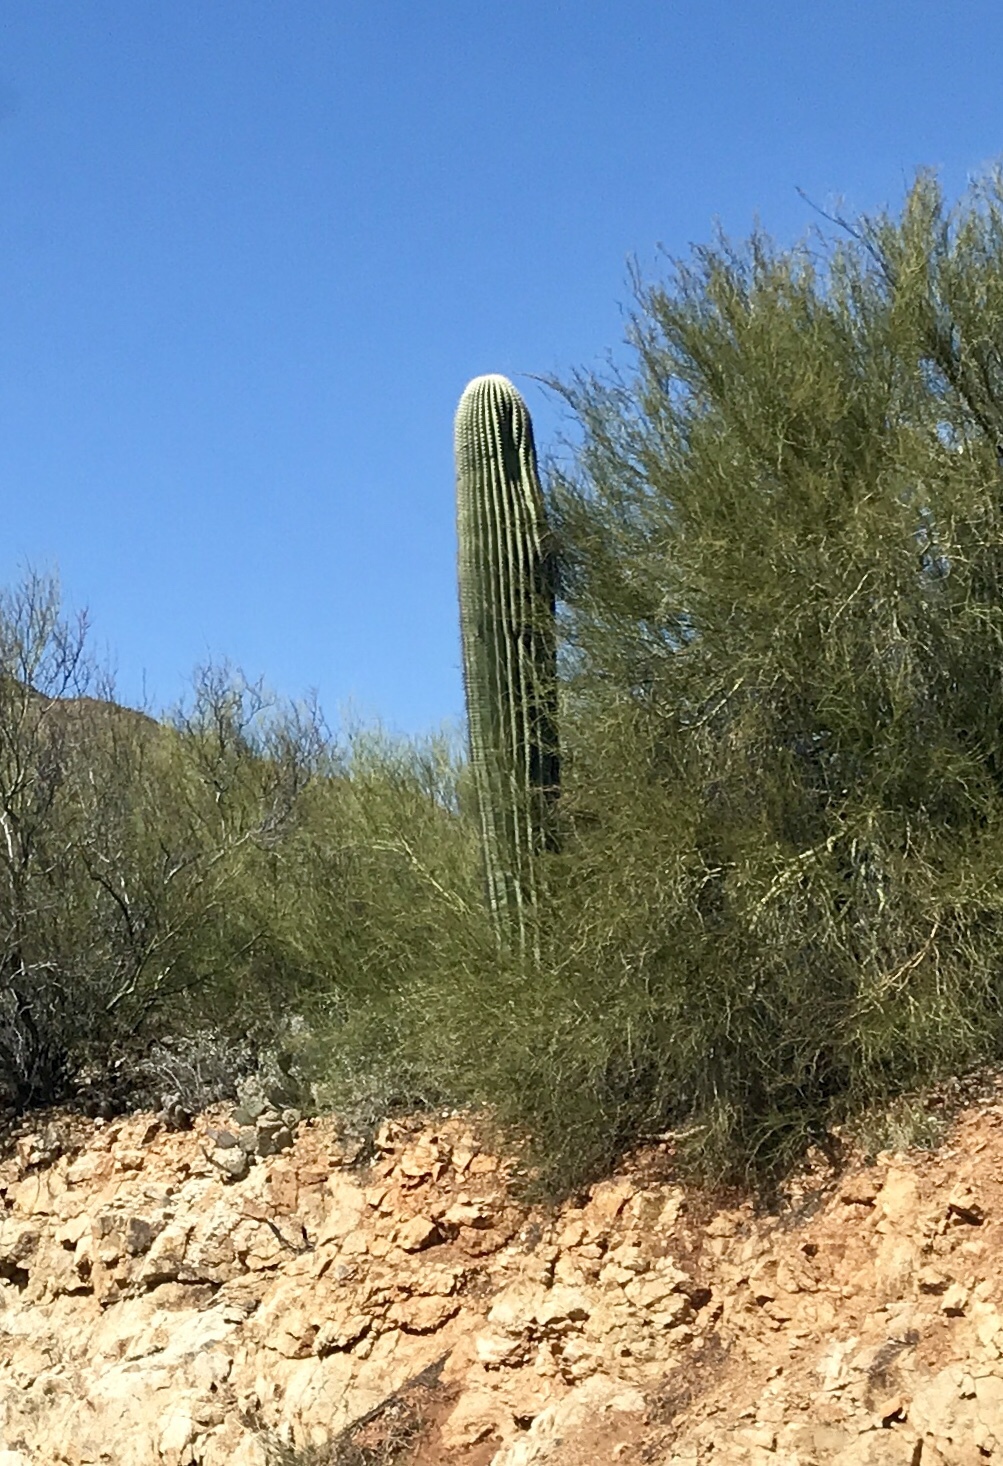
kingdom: Plantae
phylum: Tracheophyta
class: Magnoliopsida
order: Caryophyllales
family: Cactaceae
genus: Carnegiea
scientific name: Carnegiea gigantea
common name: Saguaro
